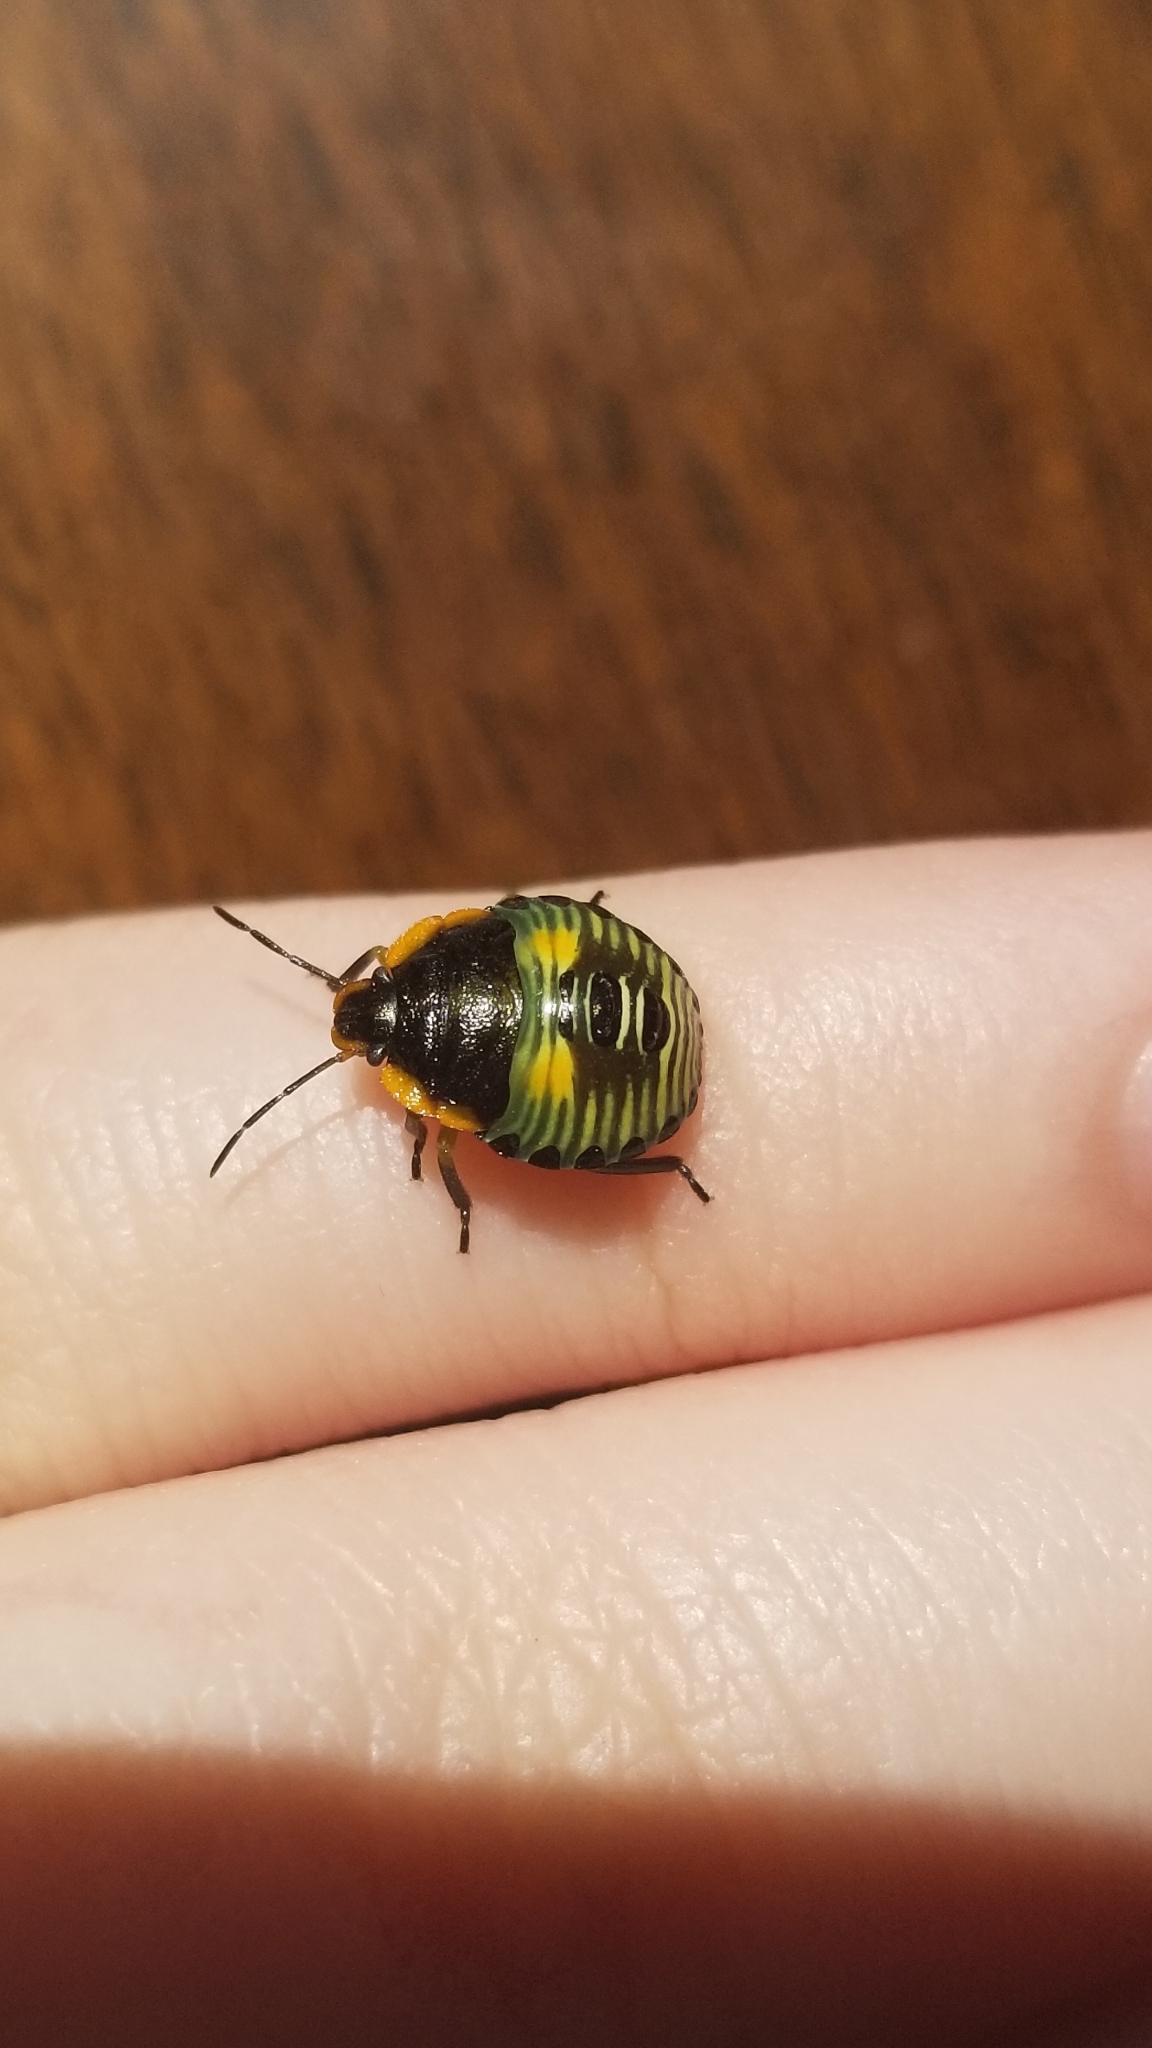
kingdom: Animalia
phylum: Arthropoda
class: Insecta
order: Hemiptera
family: Pentatomidae
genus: Chinavia
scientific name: Chinavia hilaris
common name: Green stink bug
